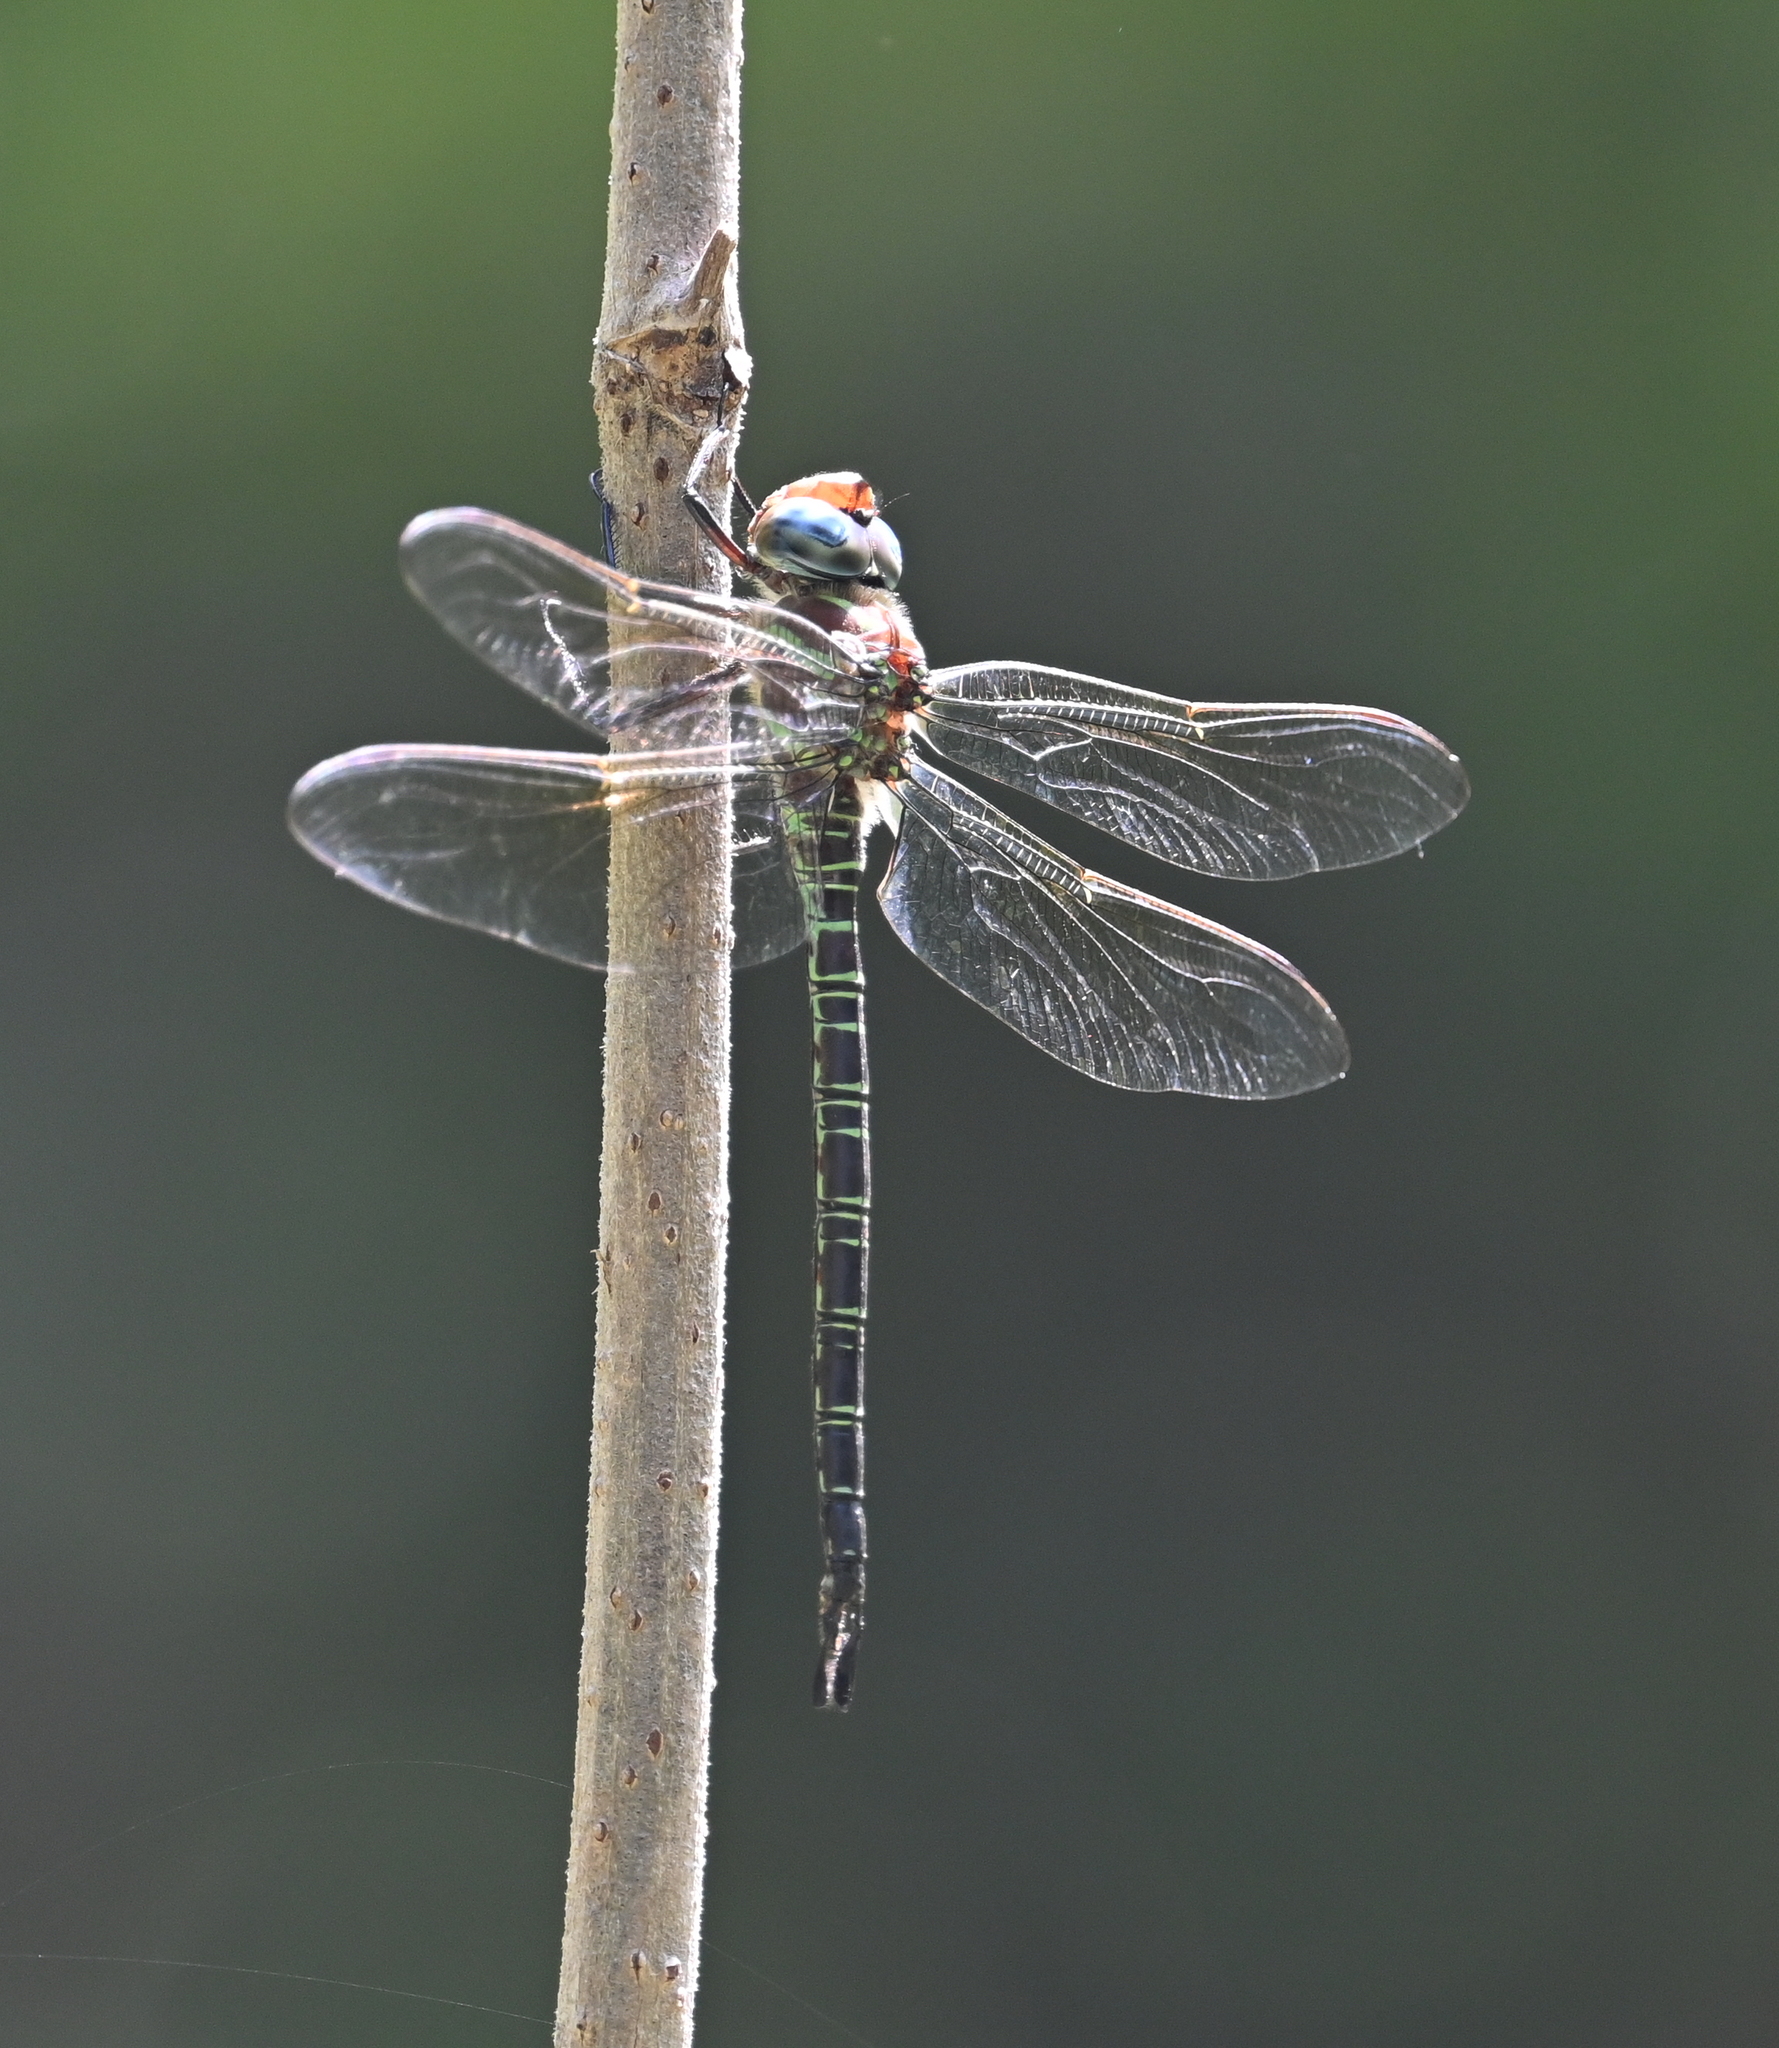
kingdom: Animalia
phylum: Arthropoda
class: Insecta
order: Odonata
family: Aeshnidae
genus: Epiaeschna
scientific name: Epiaeschna heros
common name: Swamp darner
